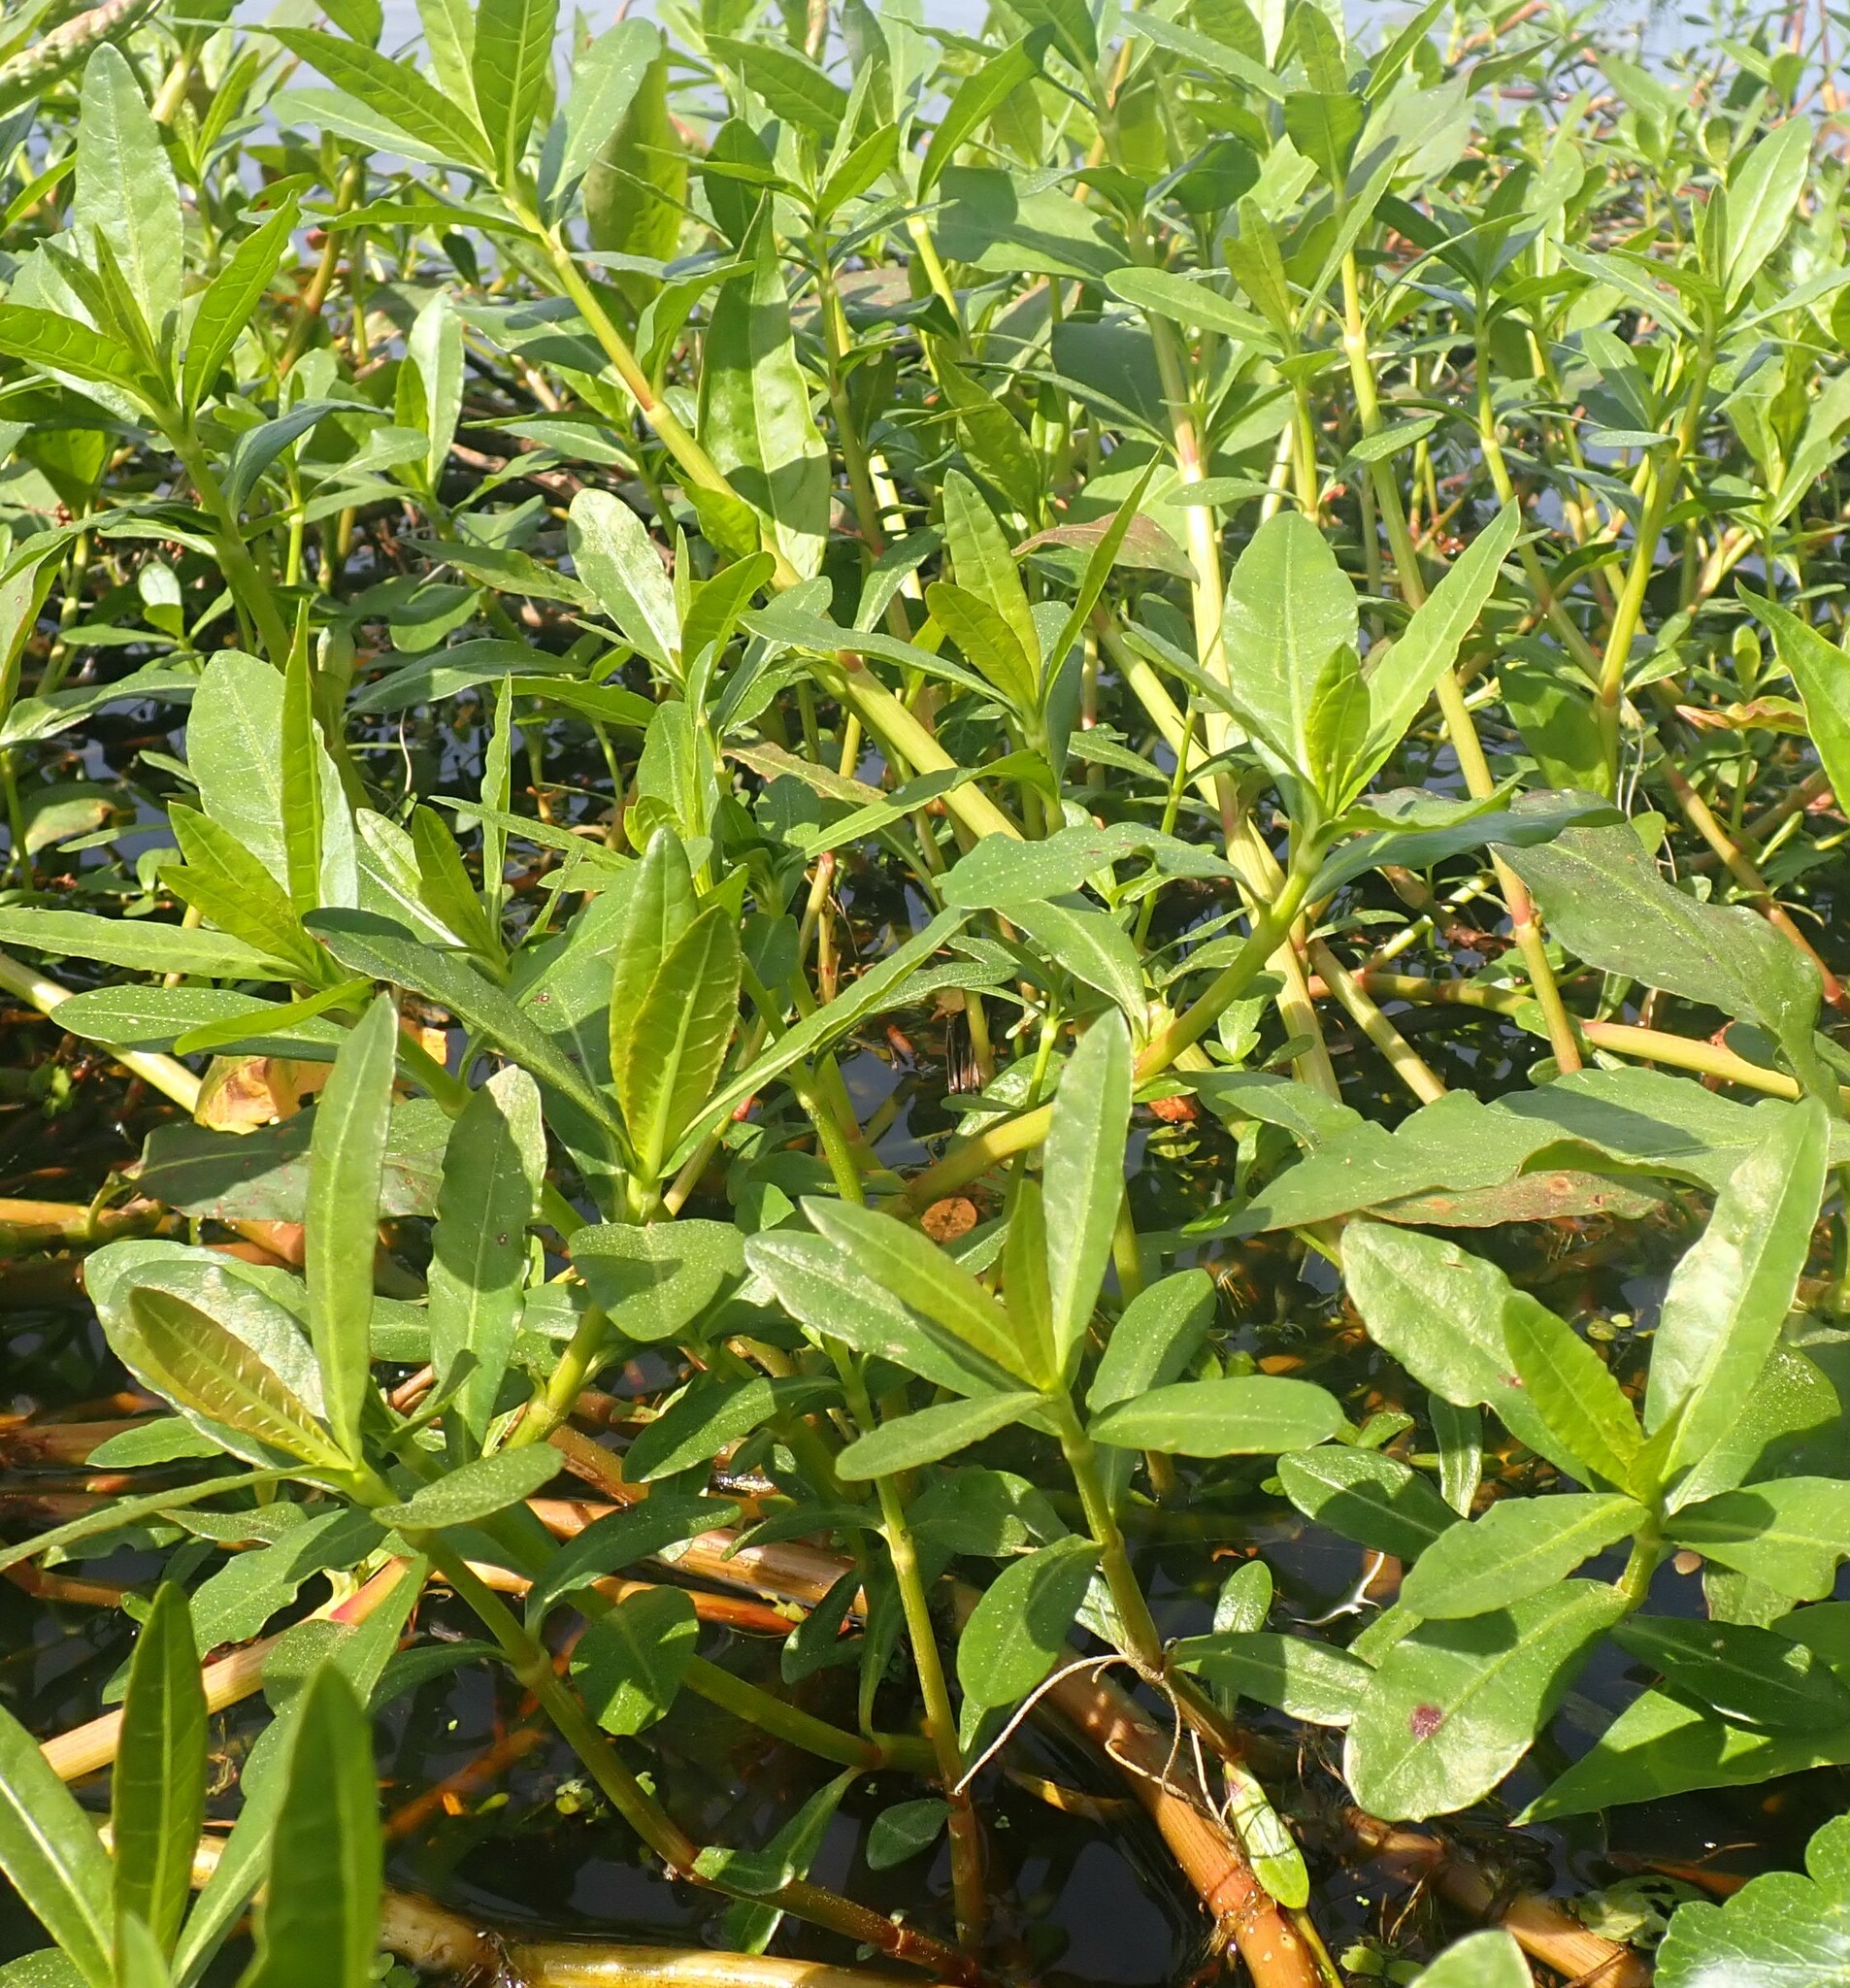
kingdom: Plantae
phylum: Tracheophyta
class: Magnoliopsida
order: Caryophyllales
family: Amaranthaceae
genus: Alternanthera
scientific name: Alternanthera philoxeroides
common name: Alligatorweed
